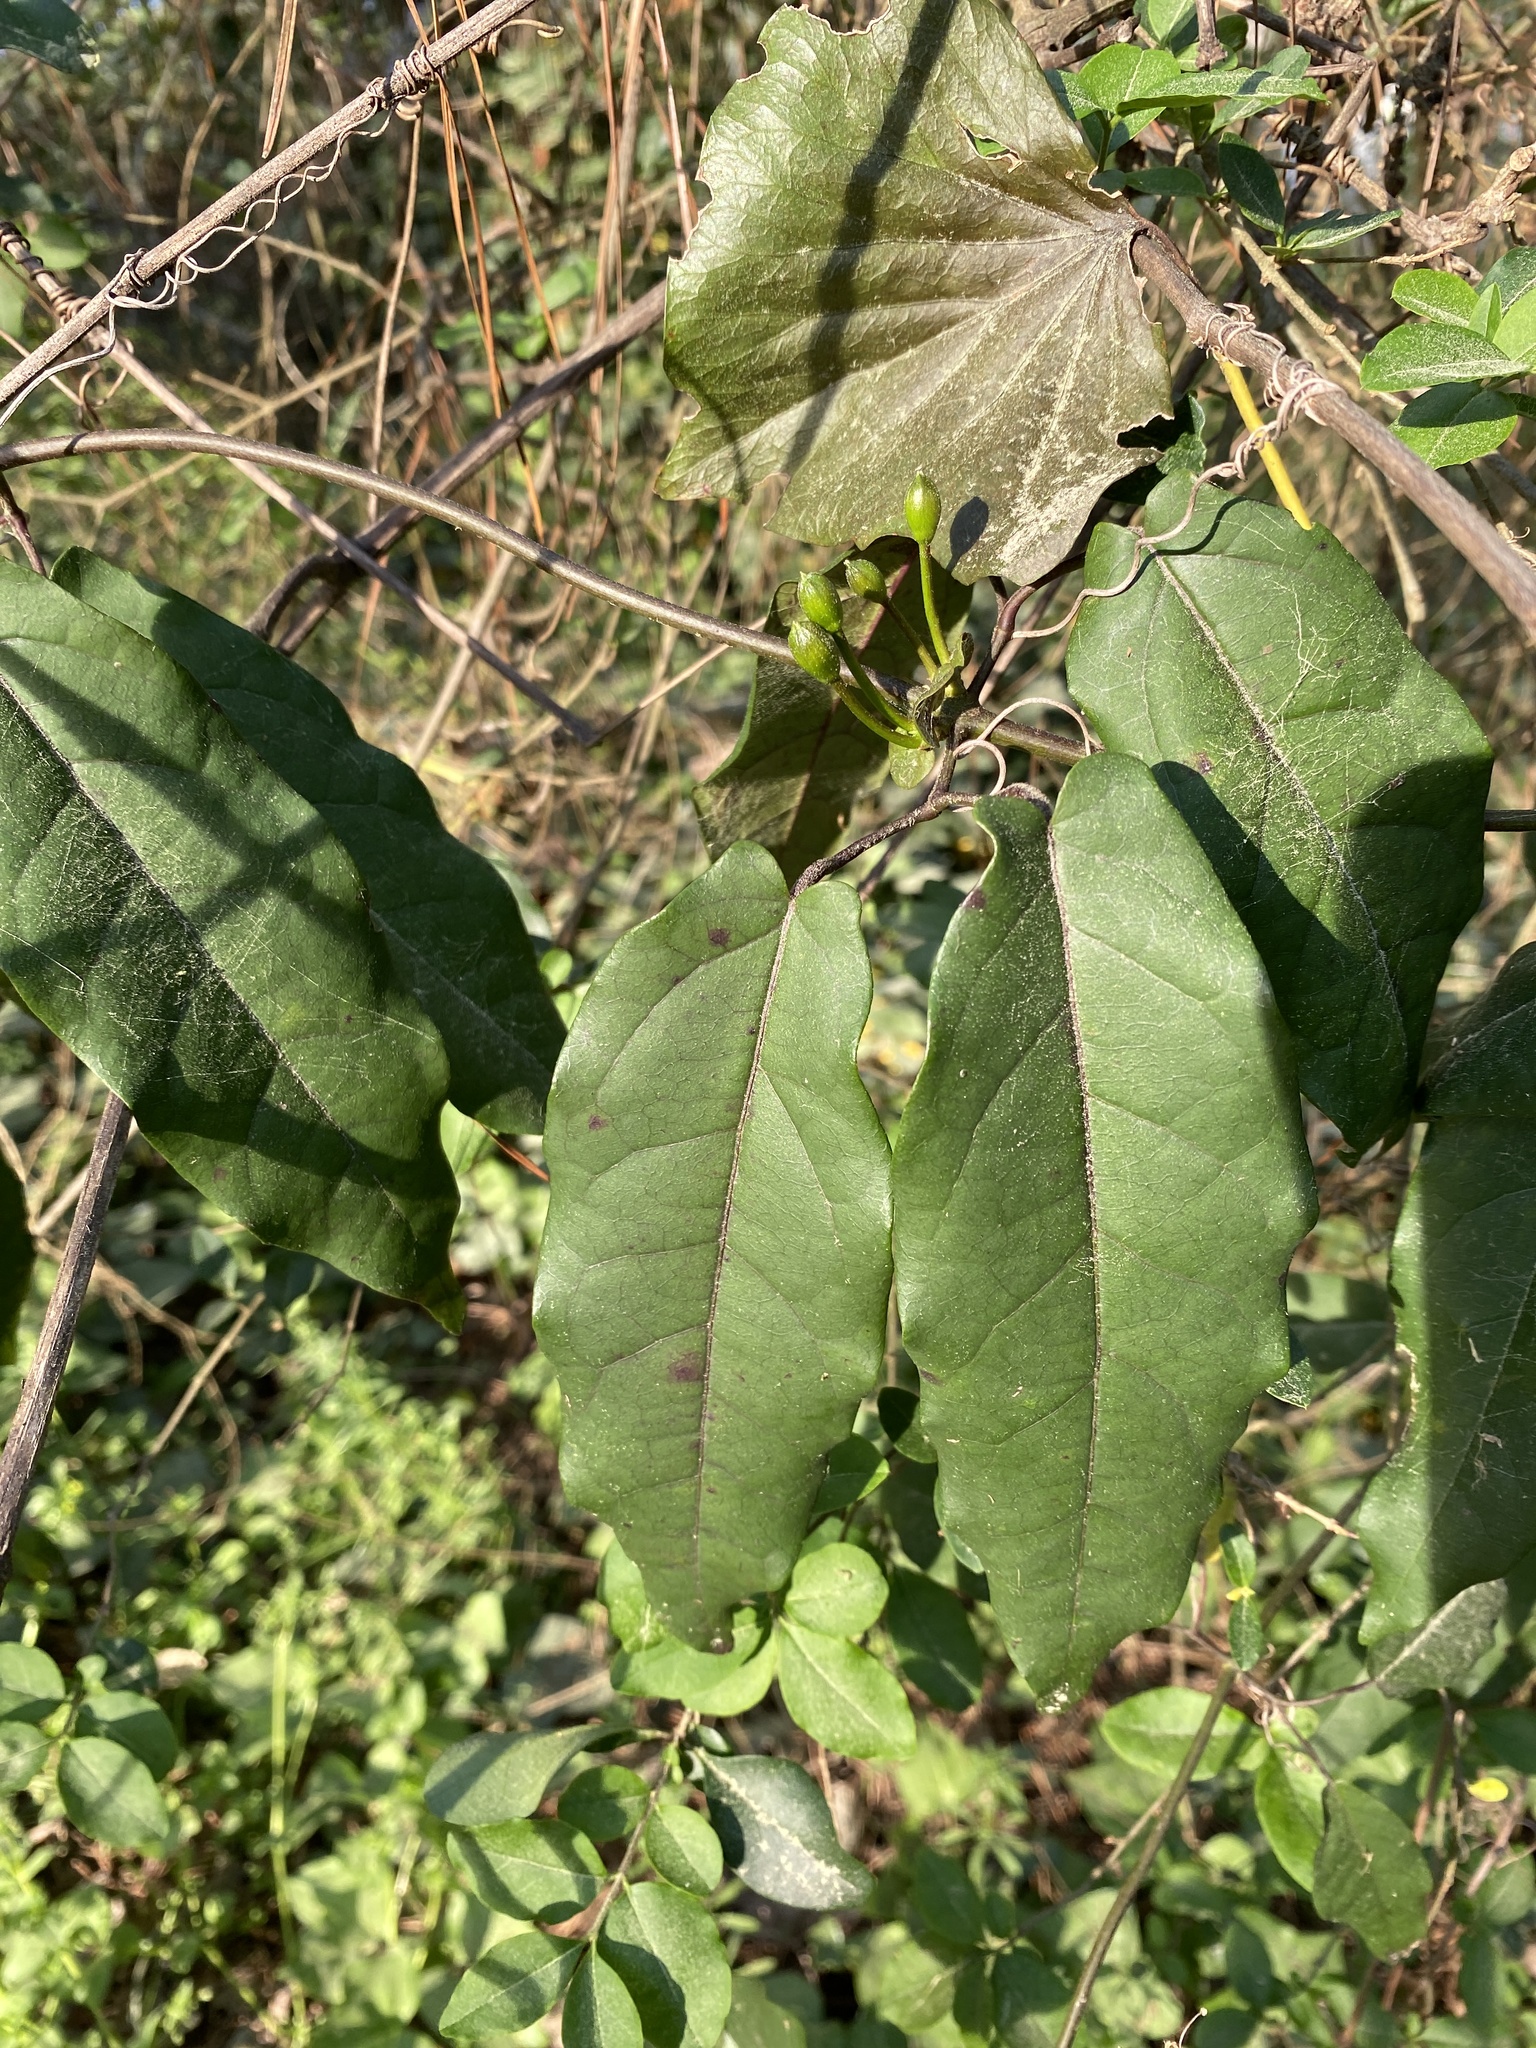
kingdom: Plantae
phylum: Tracheophyta
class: Magnoliopsida
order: Lamiales
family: Bignoniaceae
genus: Bignonia
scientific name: Bignonia capreolata
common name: Crossvine
